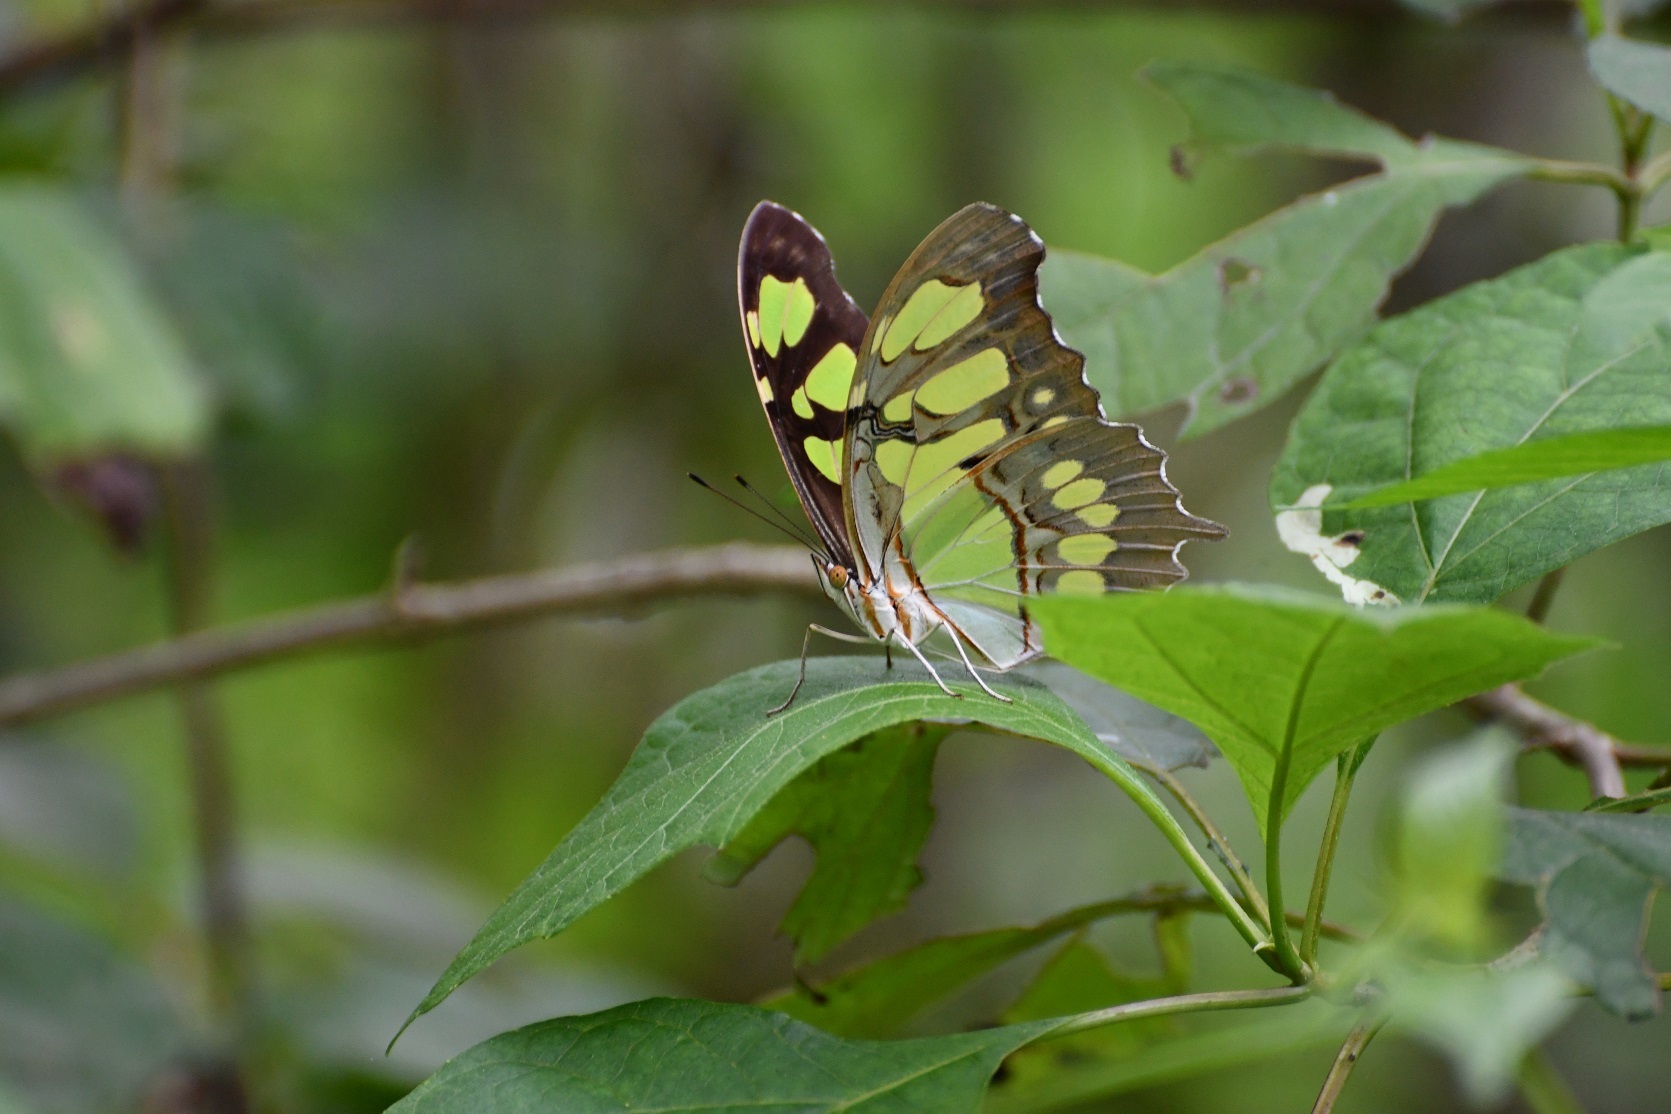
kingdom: Animalia
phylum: Arthropoda
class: Insecta
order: Lepidoptera
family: Nymphalidae
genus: Siproeta
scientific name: Siproeta stelenes
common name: Malachite
